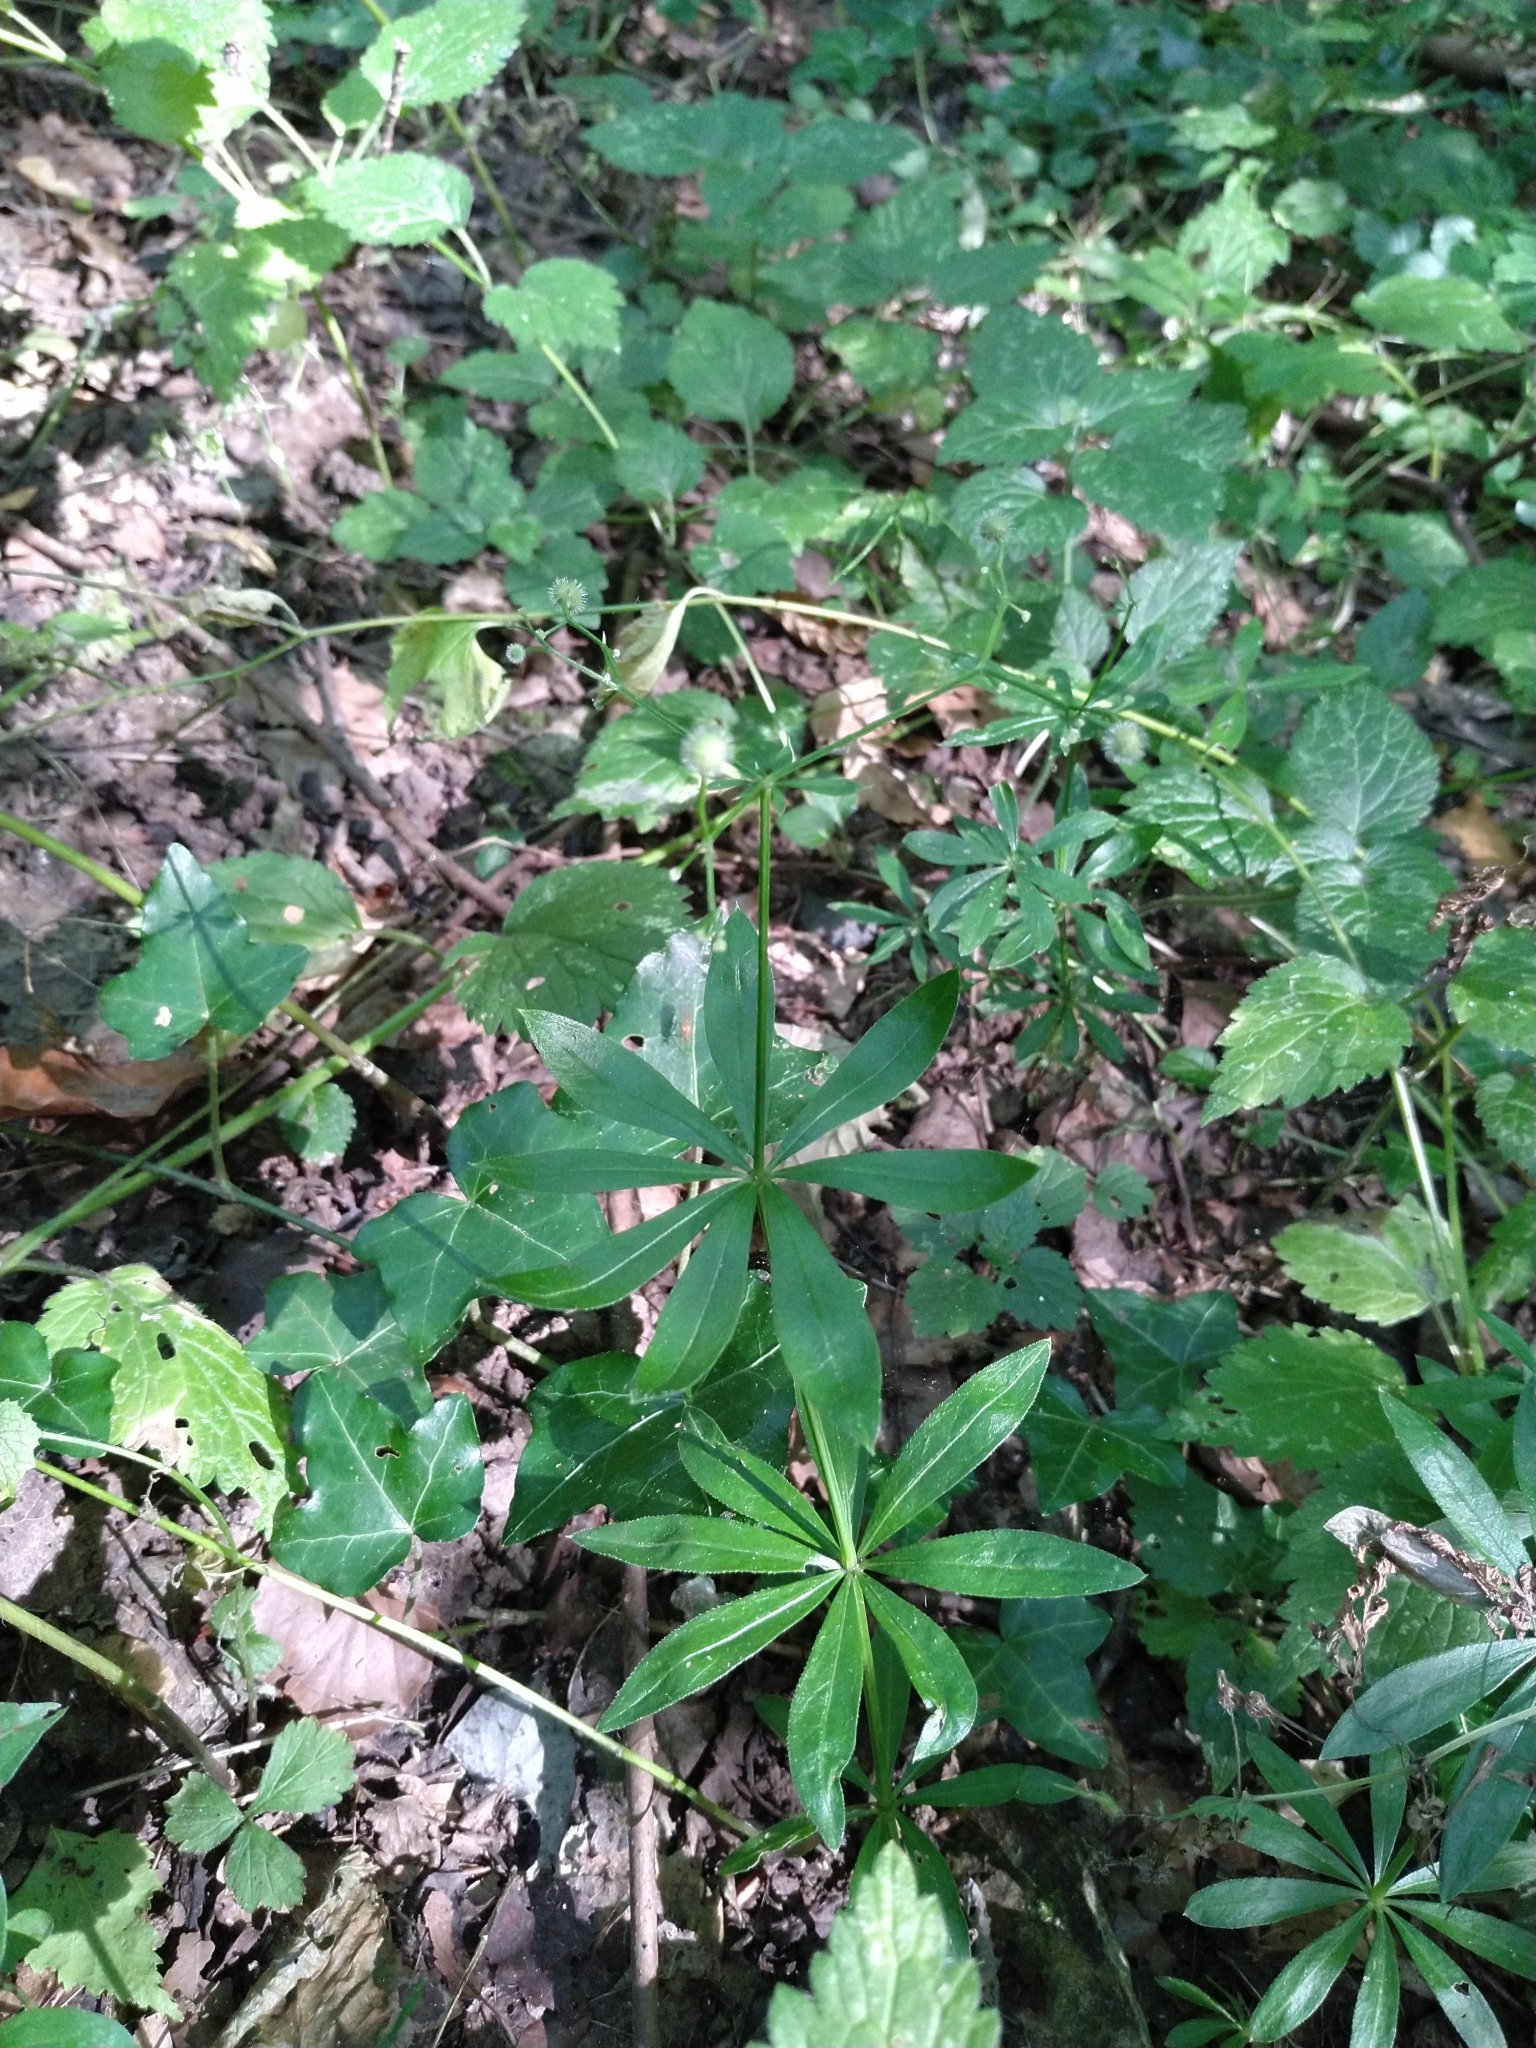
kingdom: Plantae
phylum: Tracheophyta
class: Magnoliopsida
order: Gentianales
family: Rubiaceae
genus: Galium
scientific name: Galium odoratum
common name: Sweet woodruff
